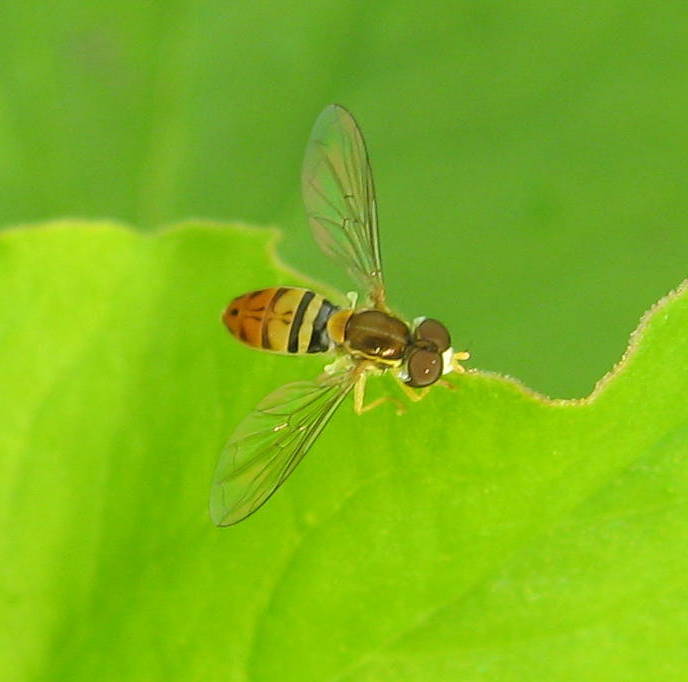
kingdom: Animalia
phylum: Arthropoda
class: Insecta
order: Diptera
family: Syrphidae
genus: Toxomerus
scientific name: Toxomerus marginatus
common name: Syrphid fly
